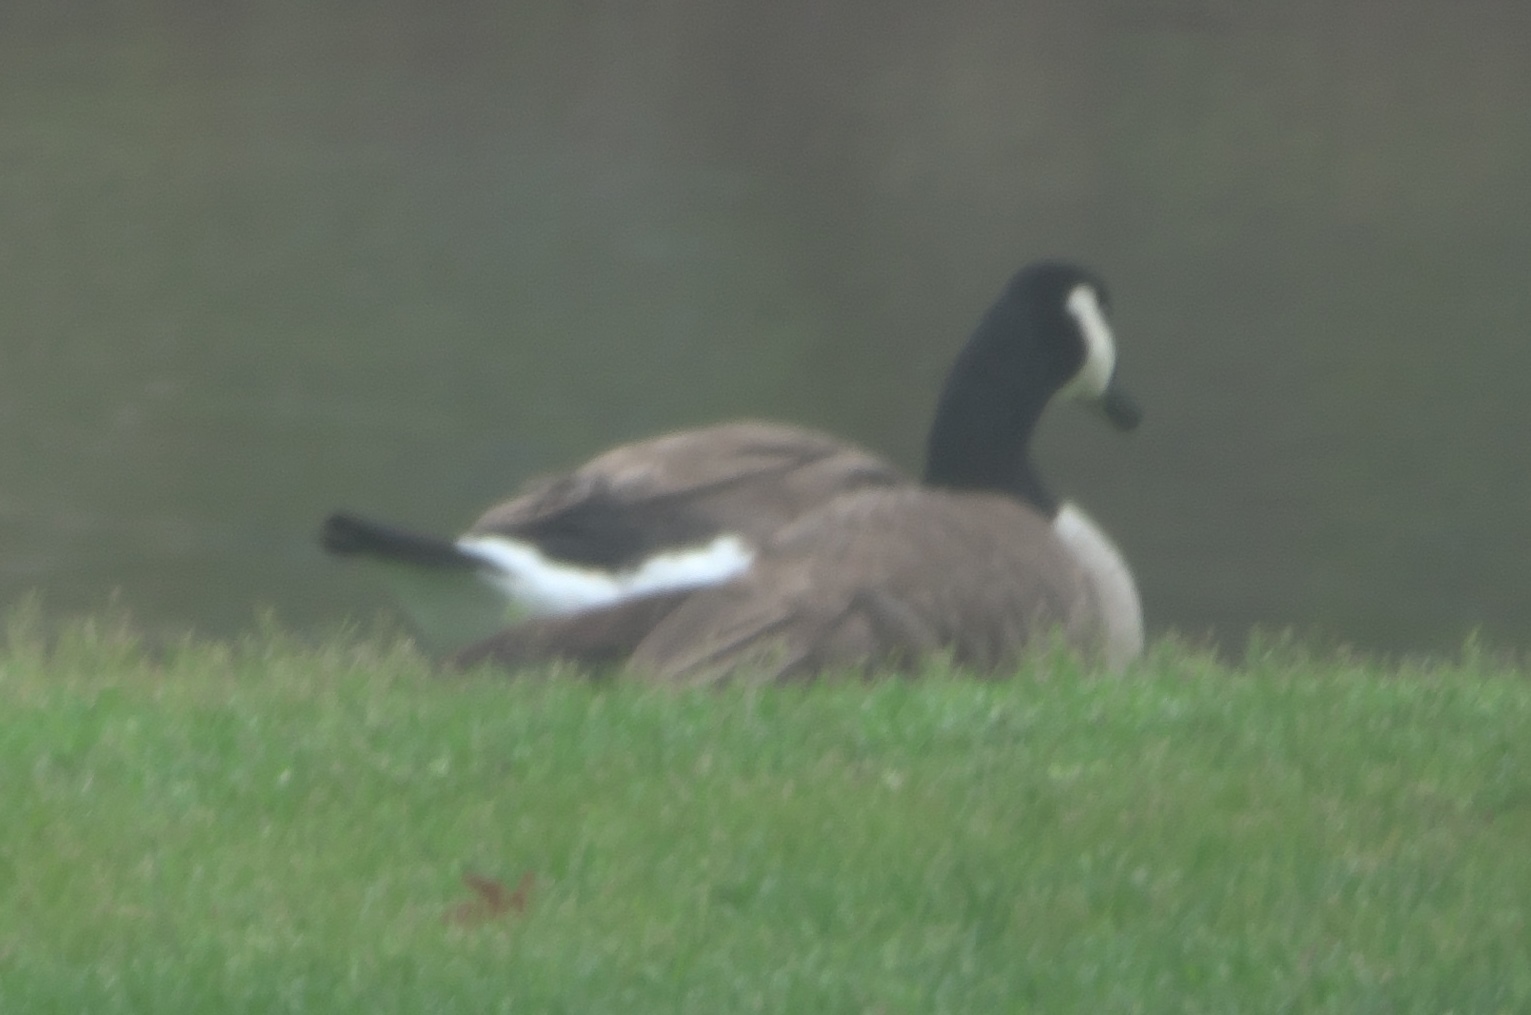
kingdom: Animalia
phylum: Chordata
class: Aves
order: Anseriformes
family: Anatidae
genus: Branta
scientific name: Branta canadensis
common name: Canada goose
